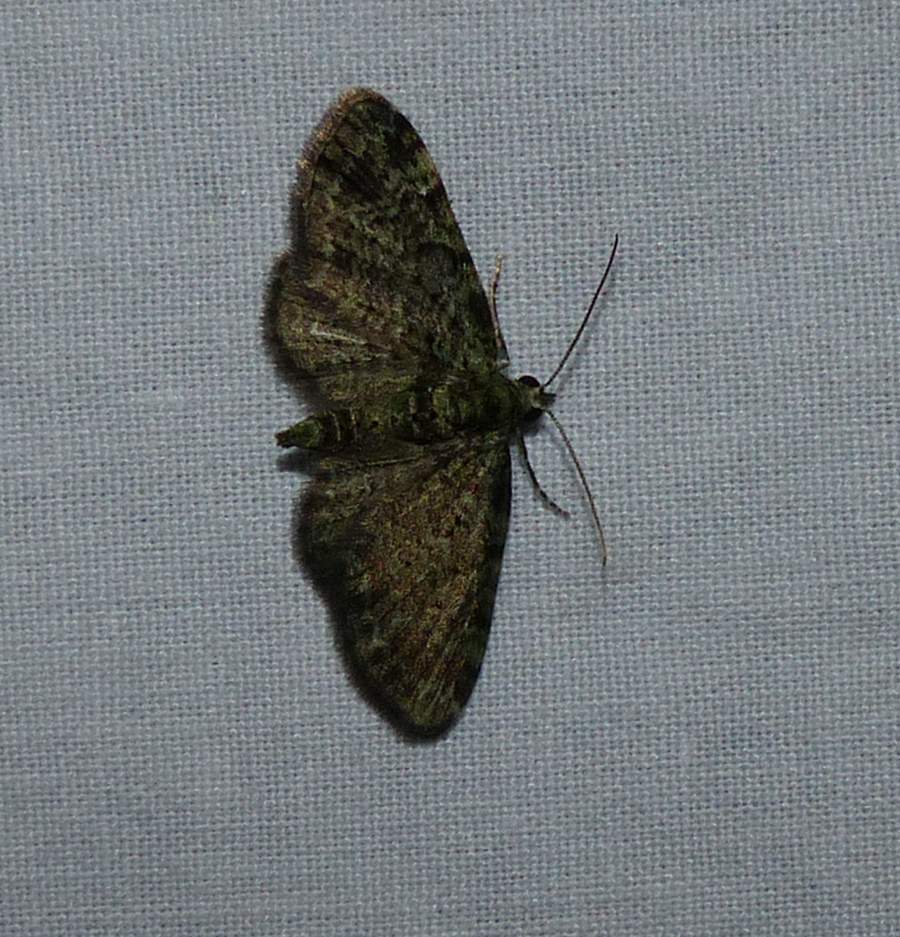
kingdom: Animalia
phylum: Arthropoda
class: Insecta
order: Lepidoptera
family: Geometridae
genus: Pasiphila
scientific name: Pasiphila rectangulata
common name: Green pug
